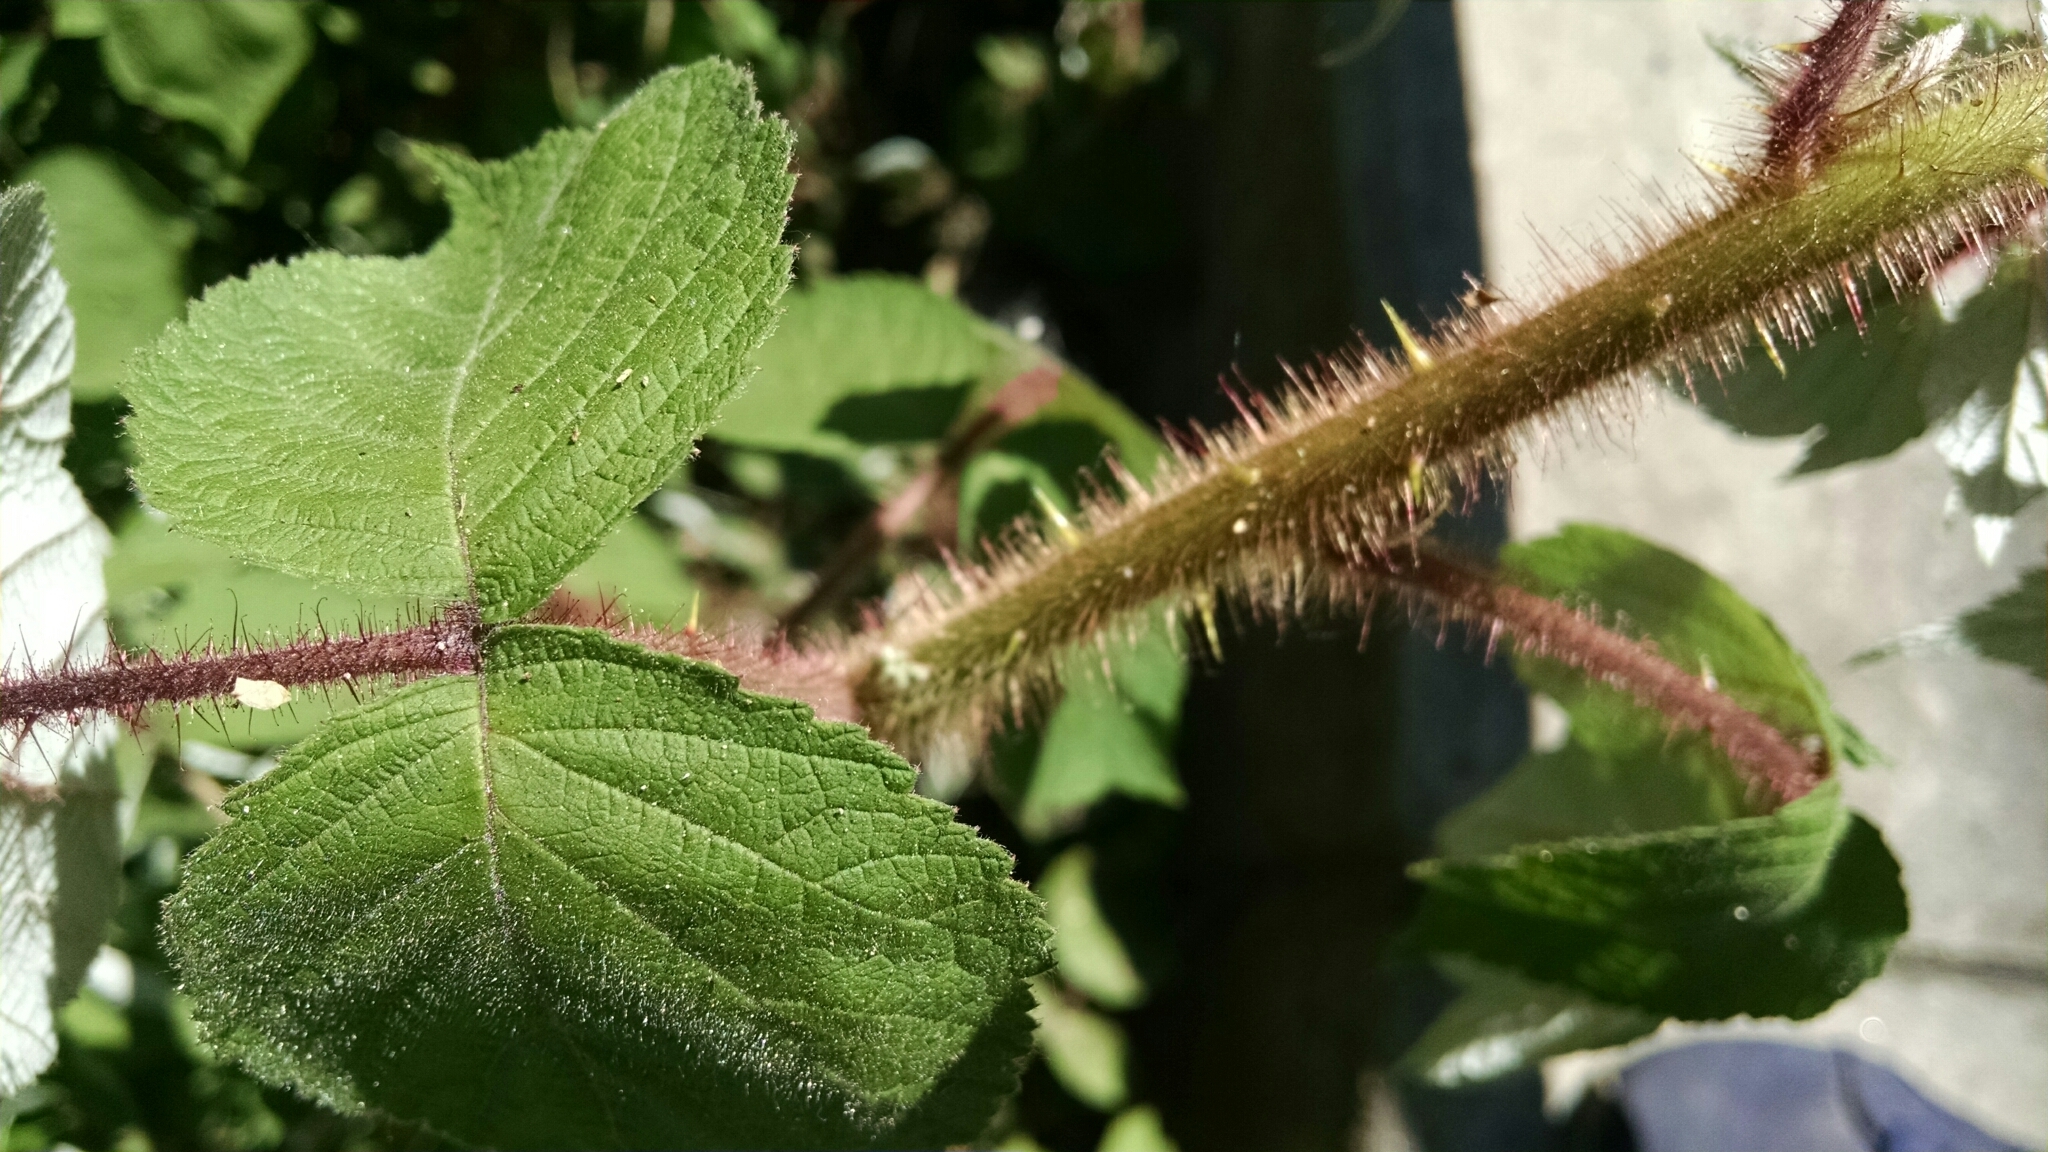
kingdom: Plantae
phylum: Tracheophyta
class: Magnoliopsida
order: Rosales
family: Rosaceae
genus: Rubus
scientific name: Rubus phoenicolasius
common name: Japanese wineberry
